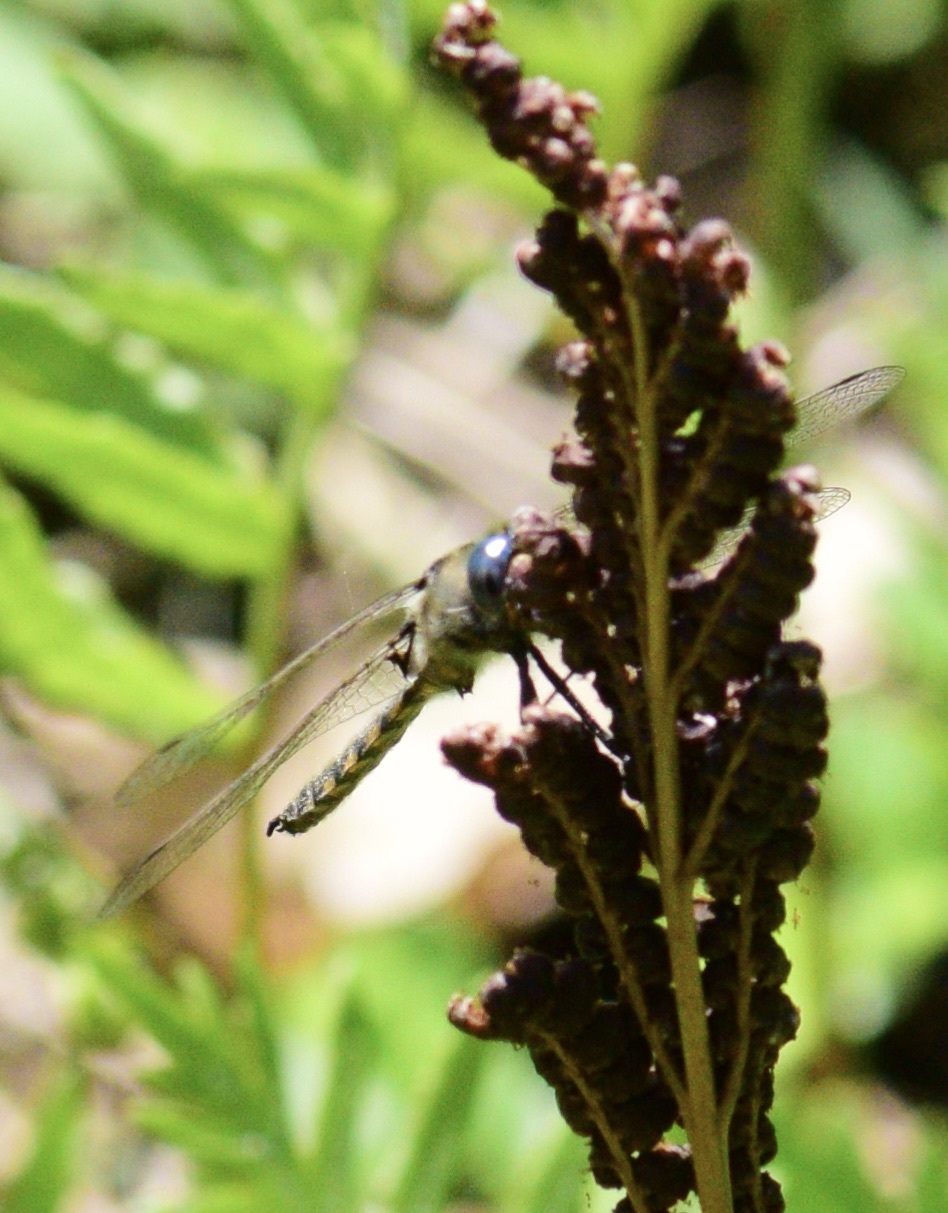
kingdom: Animalia
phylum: Arthropoda
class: Insecta
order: Odonata
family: Corduliidae
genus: Epitheca
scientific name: Epitheca canis
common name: Beaverpond baskettail
